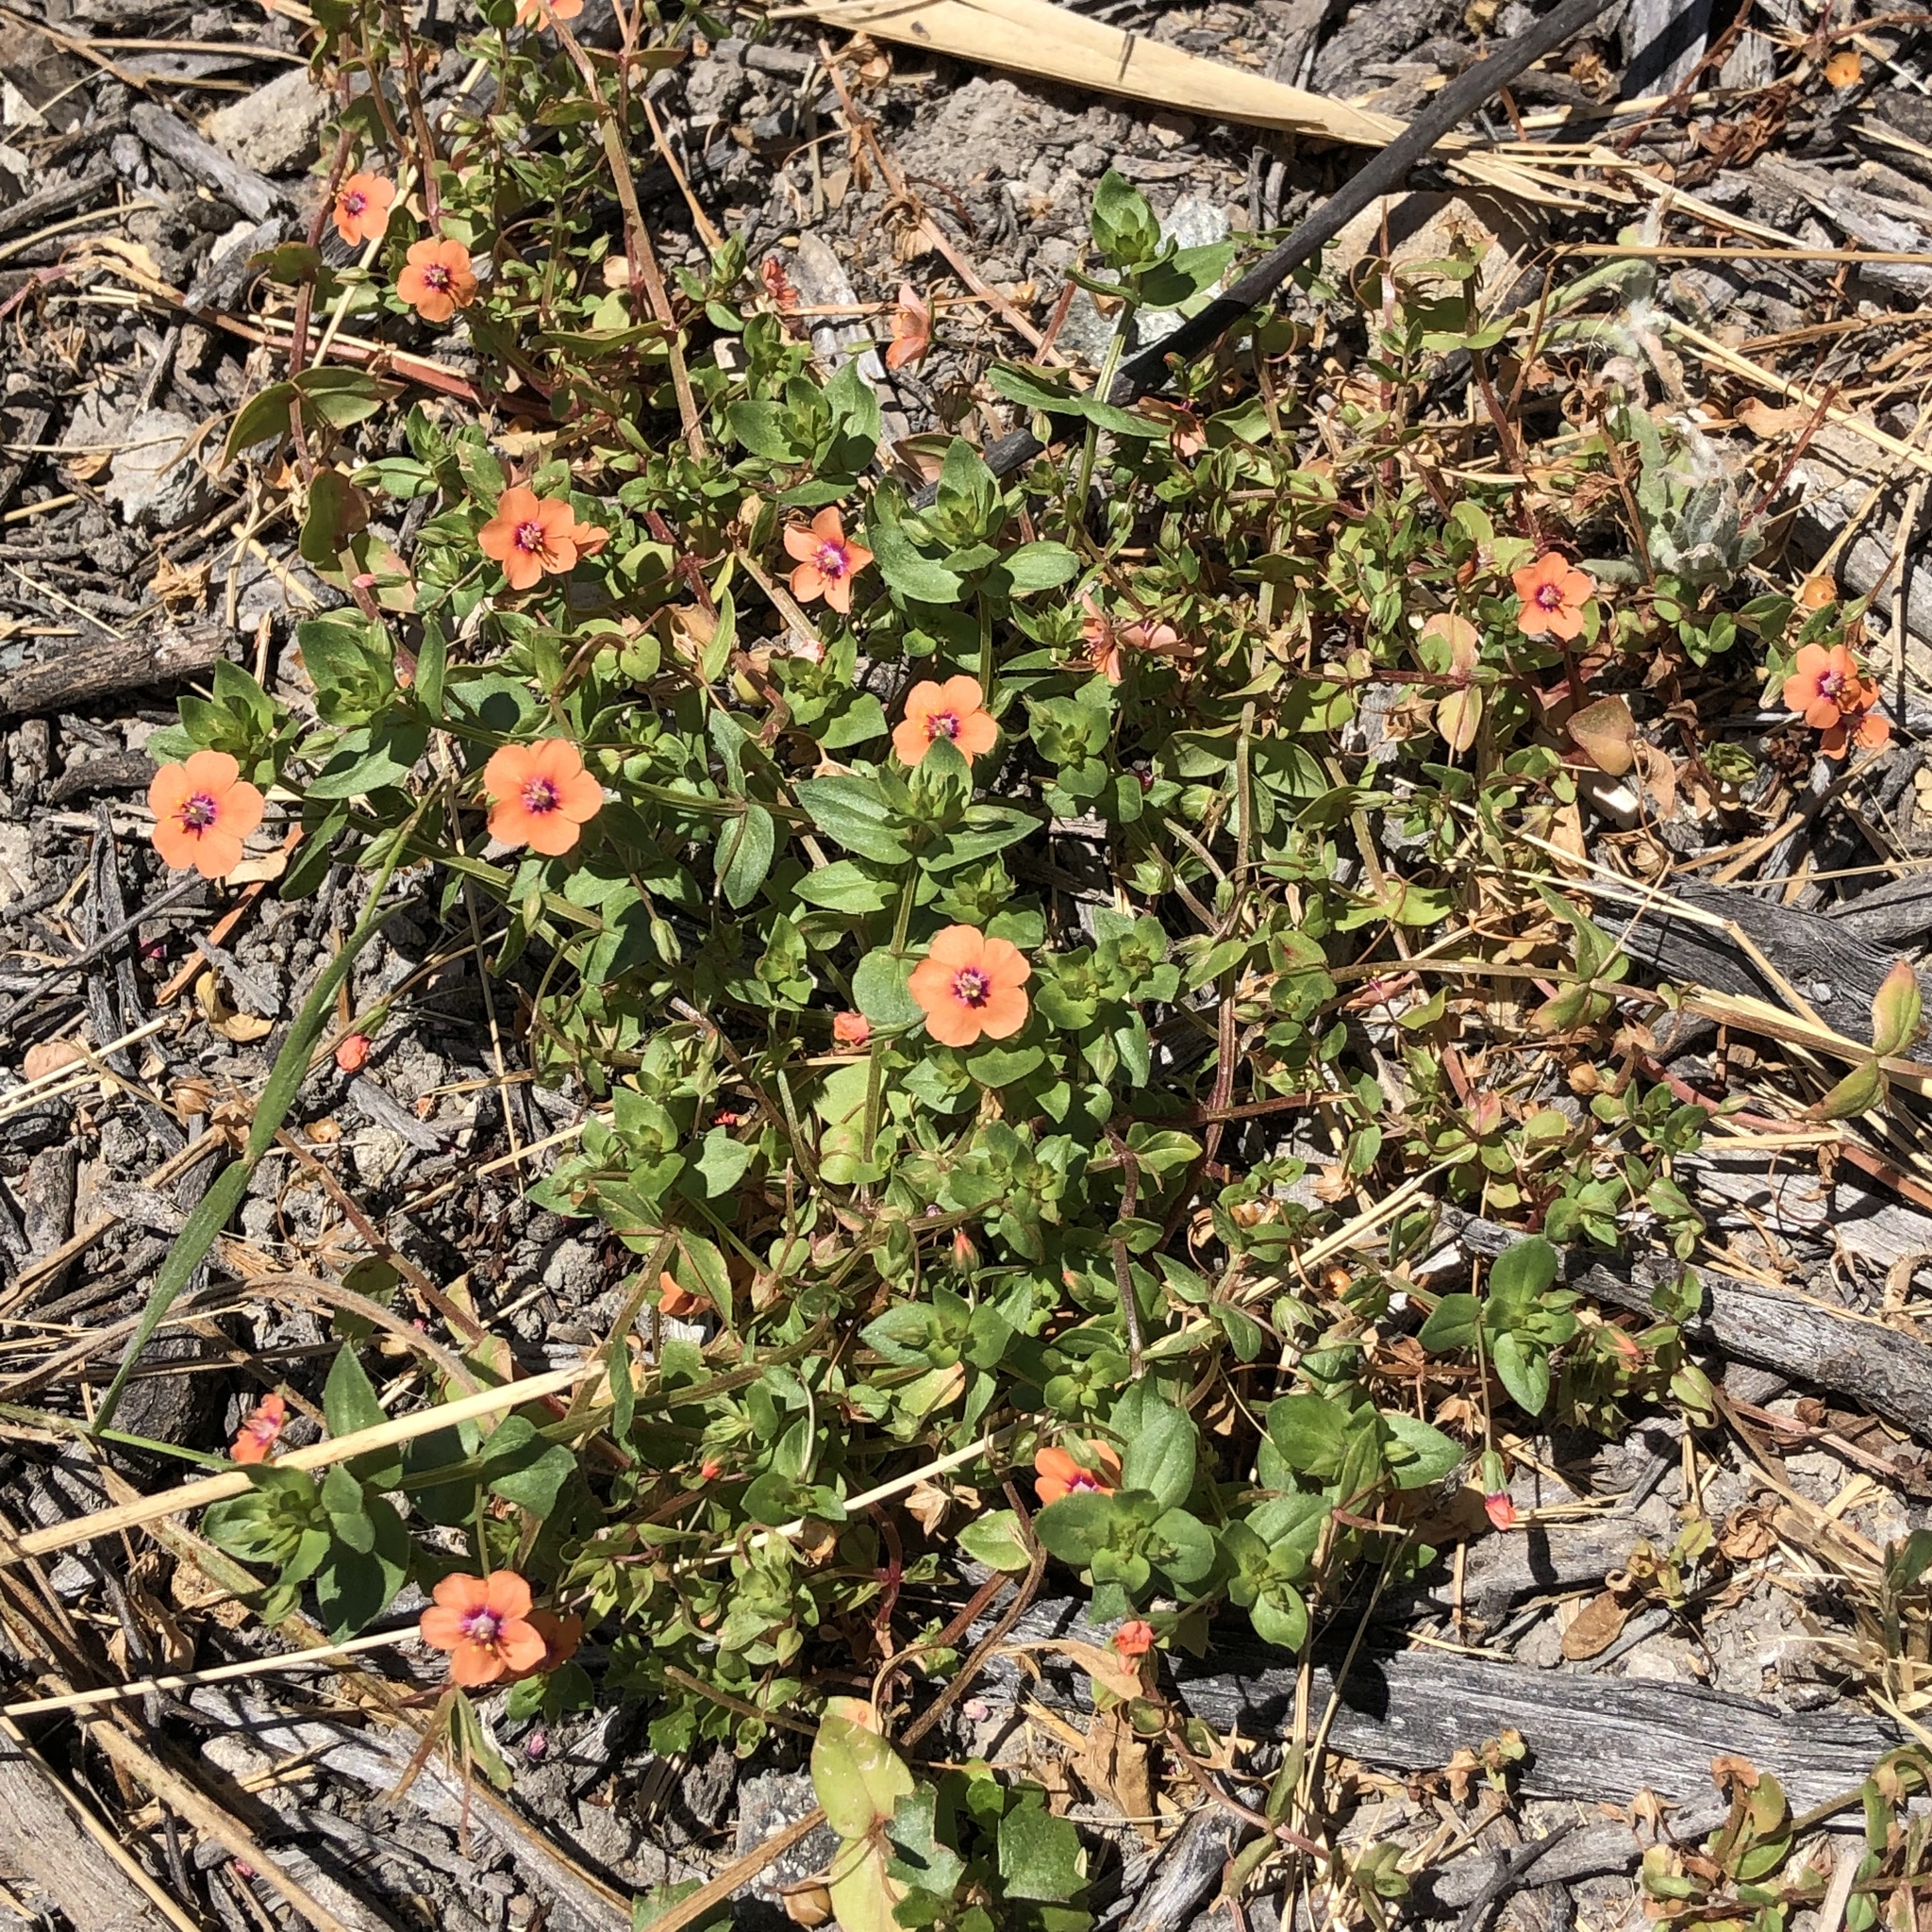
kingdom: Plantae
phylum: Tracheophyta
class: Magnoliopsida
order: Ericales
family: Primulaceae
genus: Lysimachia
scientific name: Lysimachia arvensis
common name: Scarlet pimpernel
